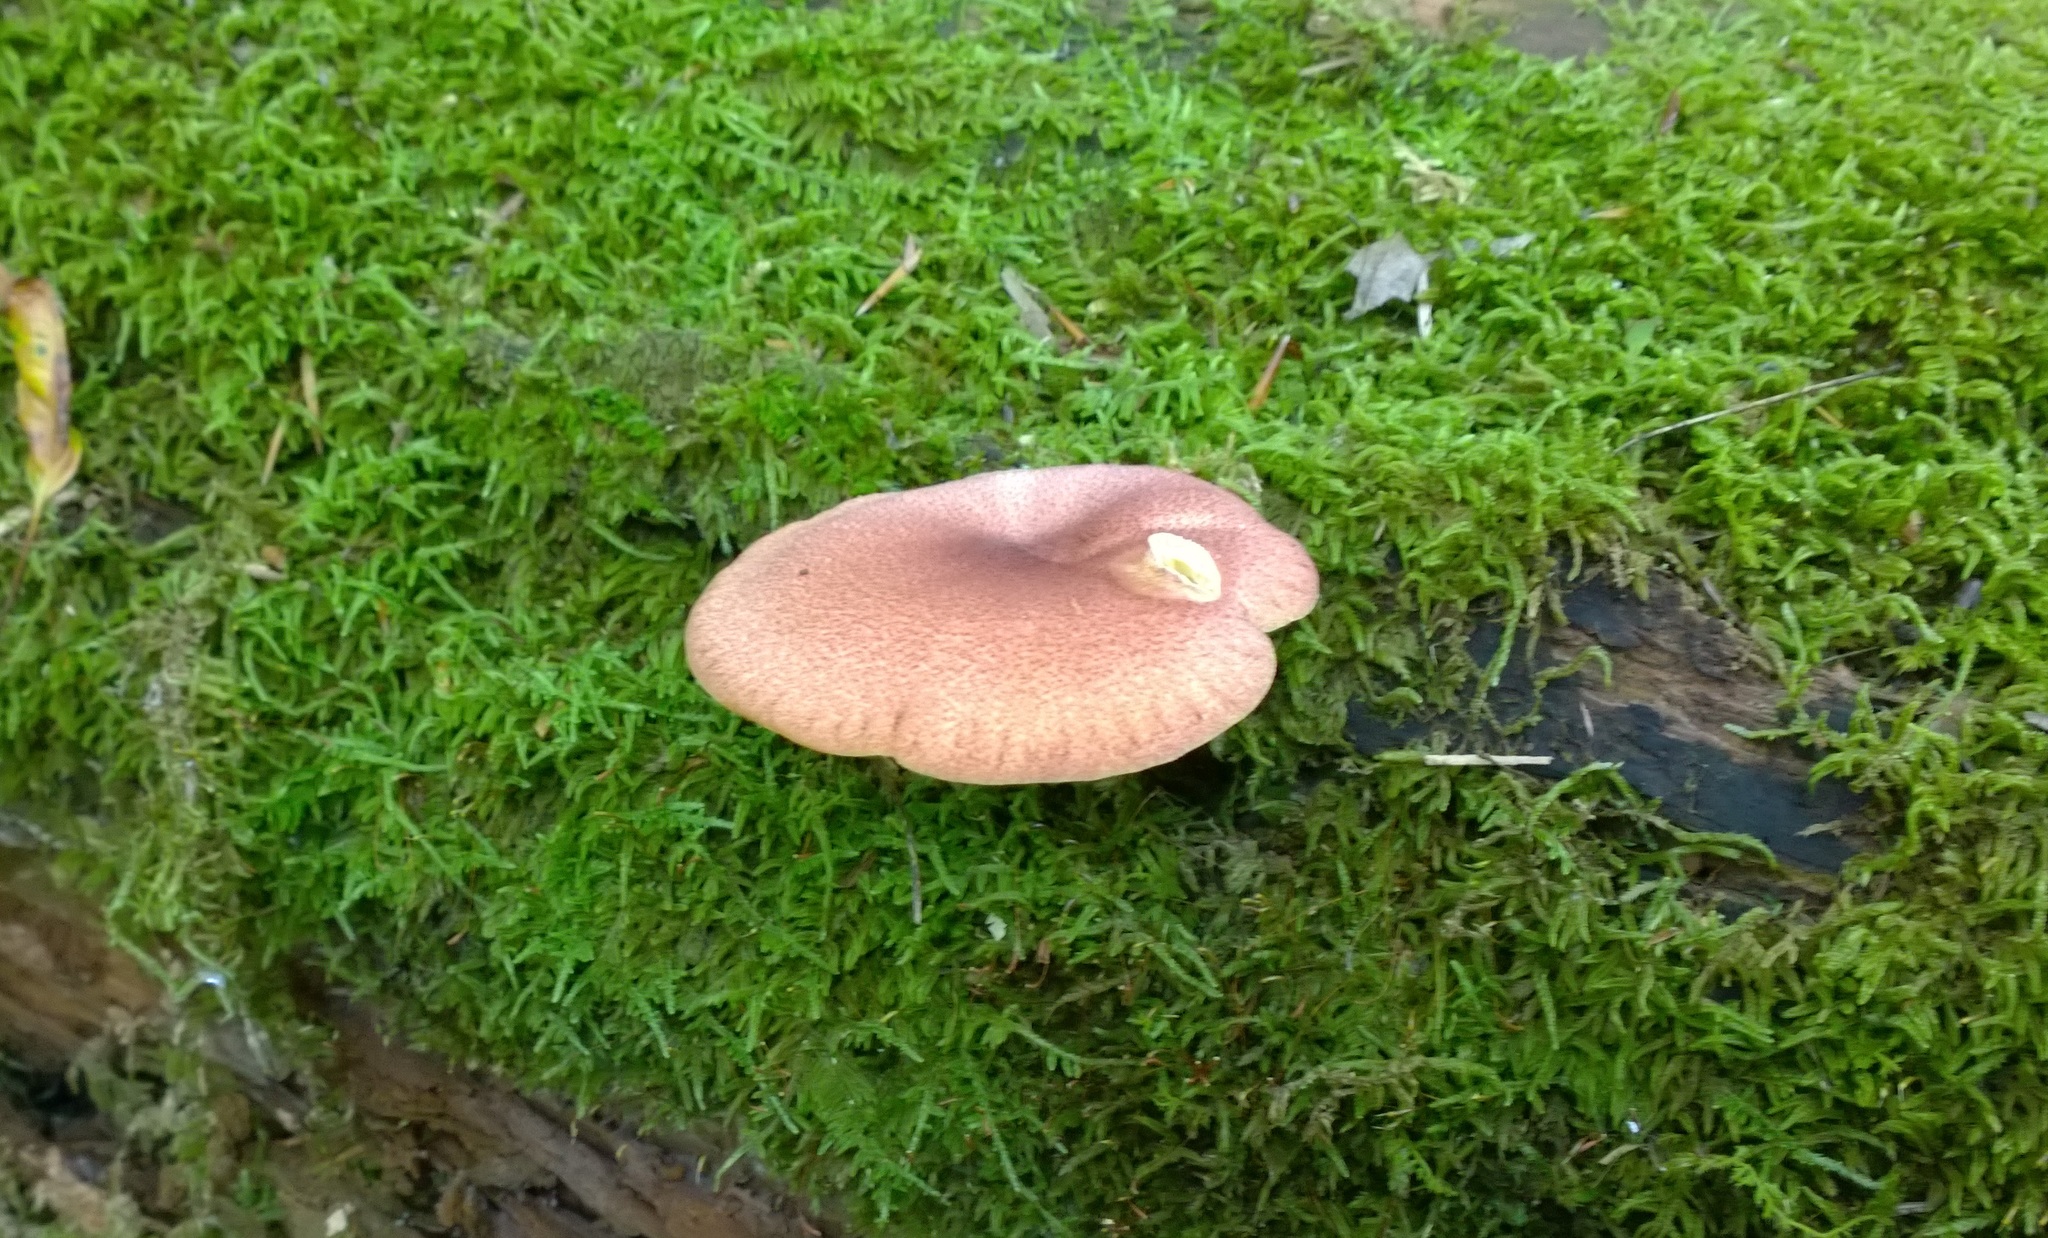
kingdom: Fungi
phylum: Basidiomycota
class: Agaricomycetes
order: Agaricales
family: Tricholomataceae
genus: Tricholomopsis
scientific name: Tricholomopsis rutilans
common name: Plums and custard
